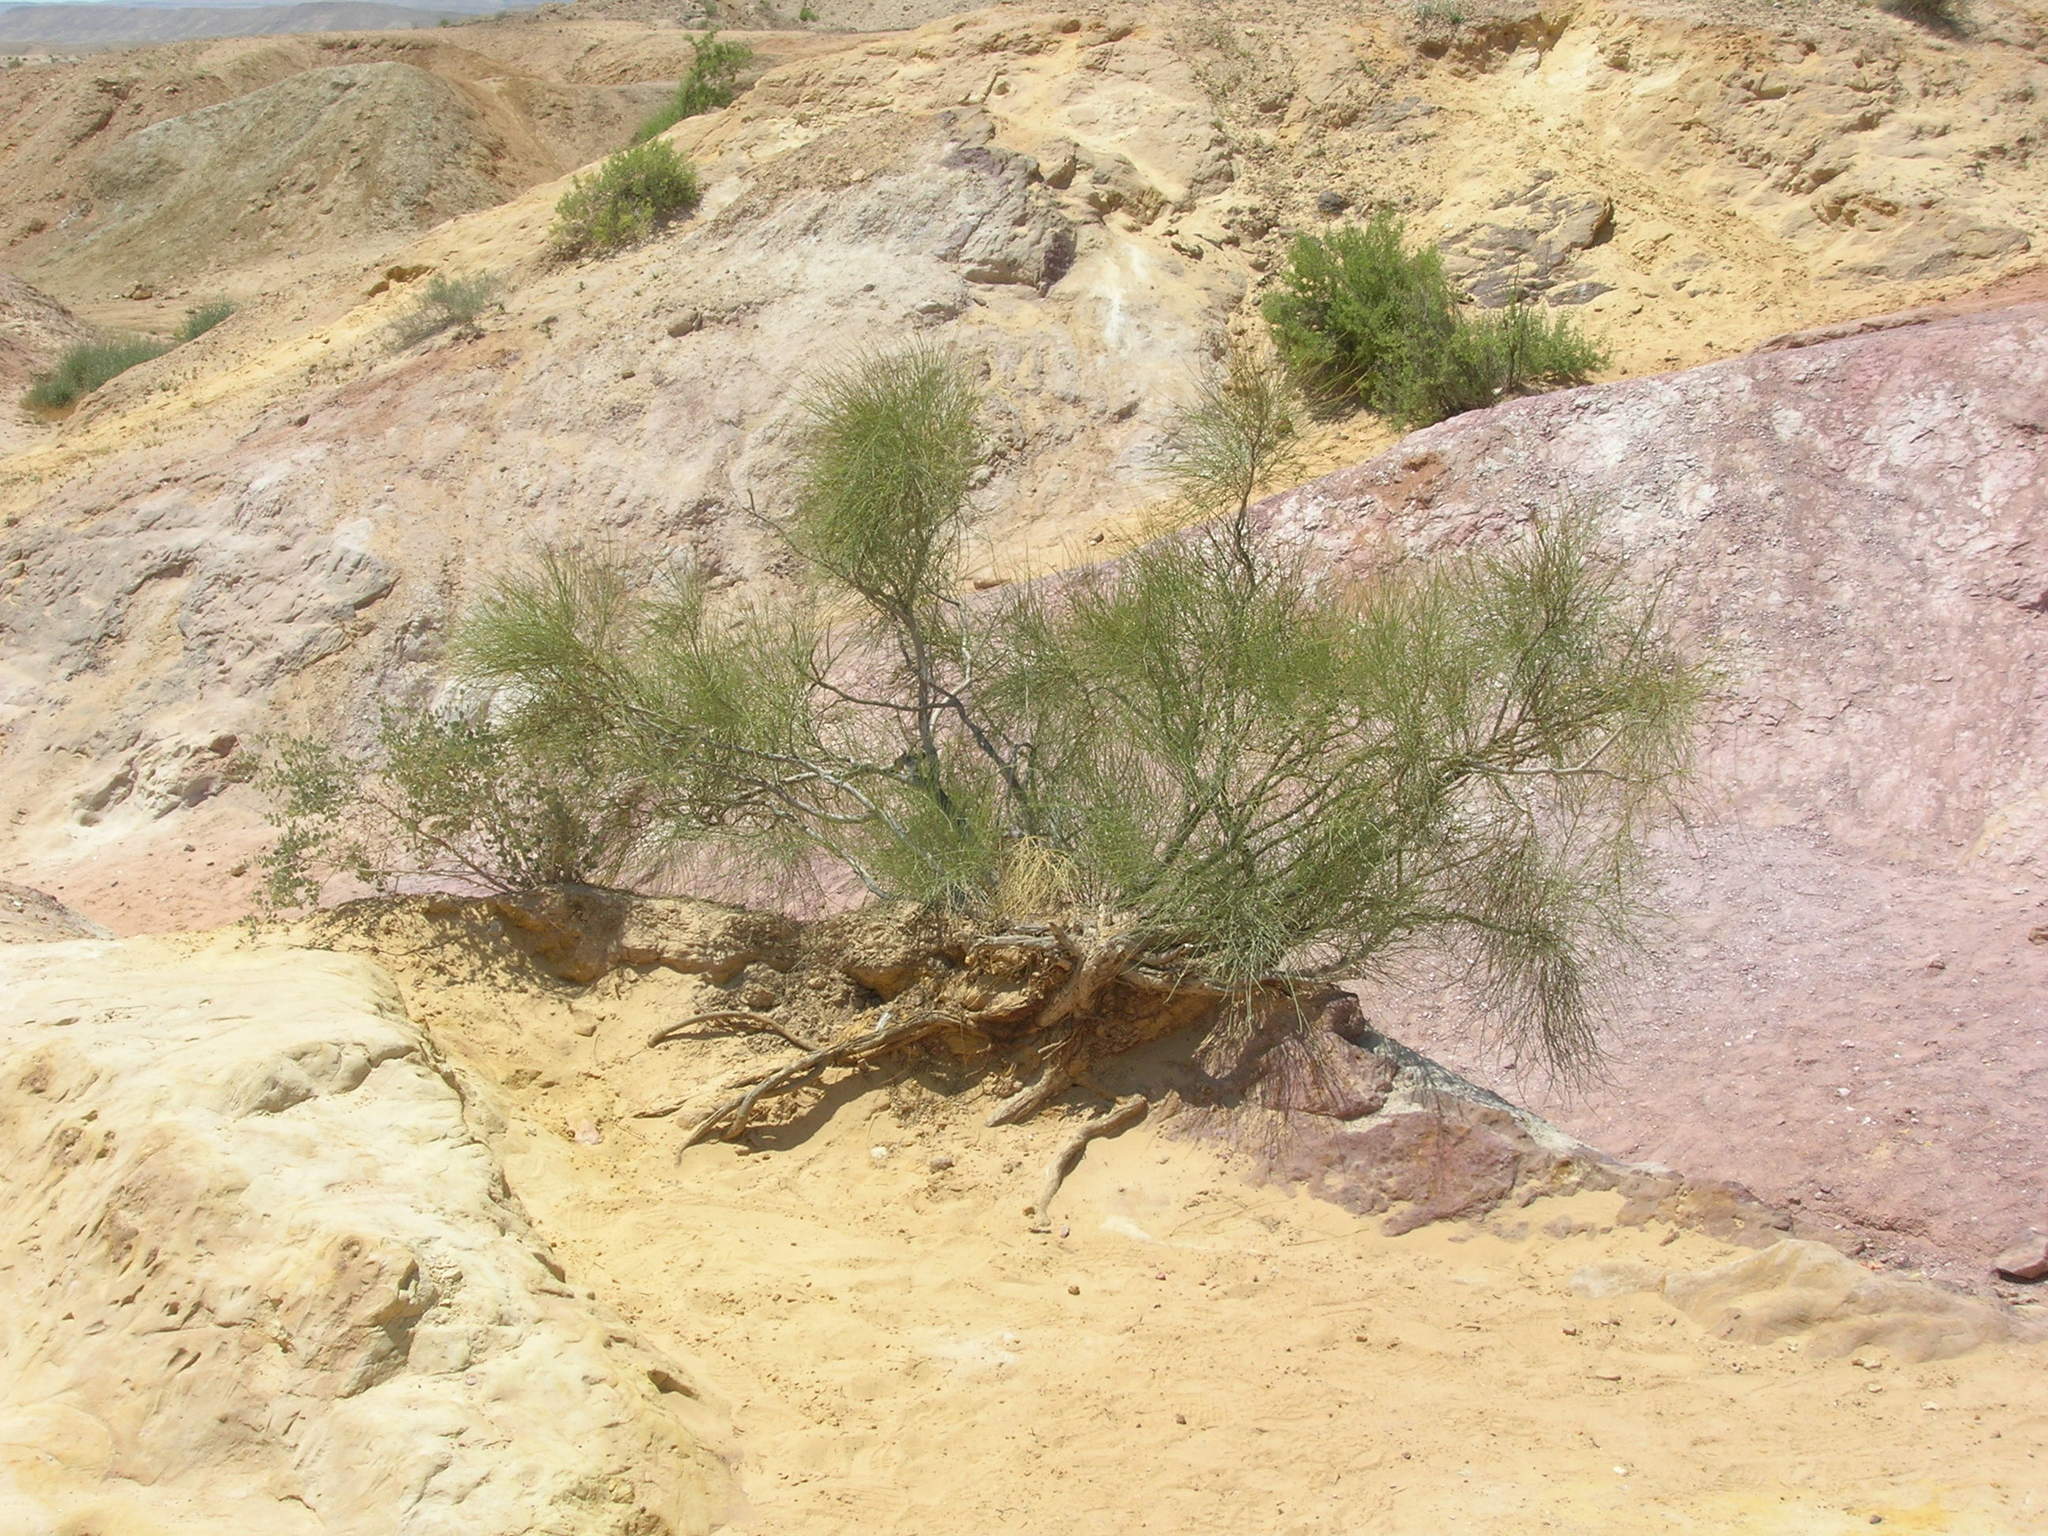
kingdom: Plantae
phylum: Tracheophyta
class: Magnoliopsida
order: Fabales
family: Fabaceae
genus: Retama
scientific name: Retama raetam
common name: Retem
